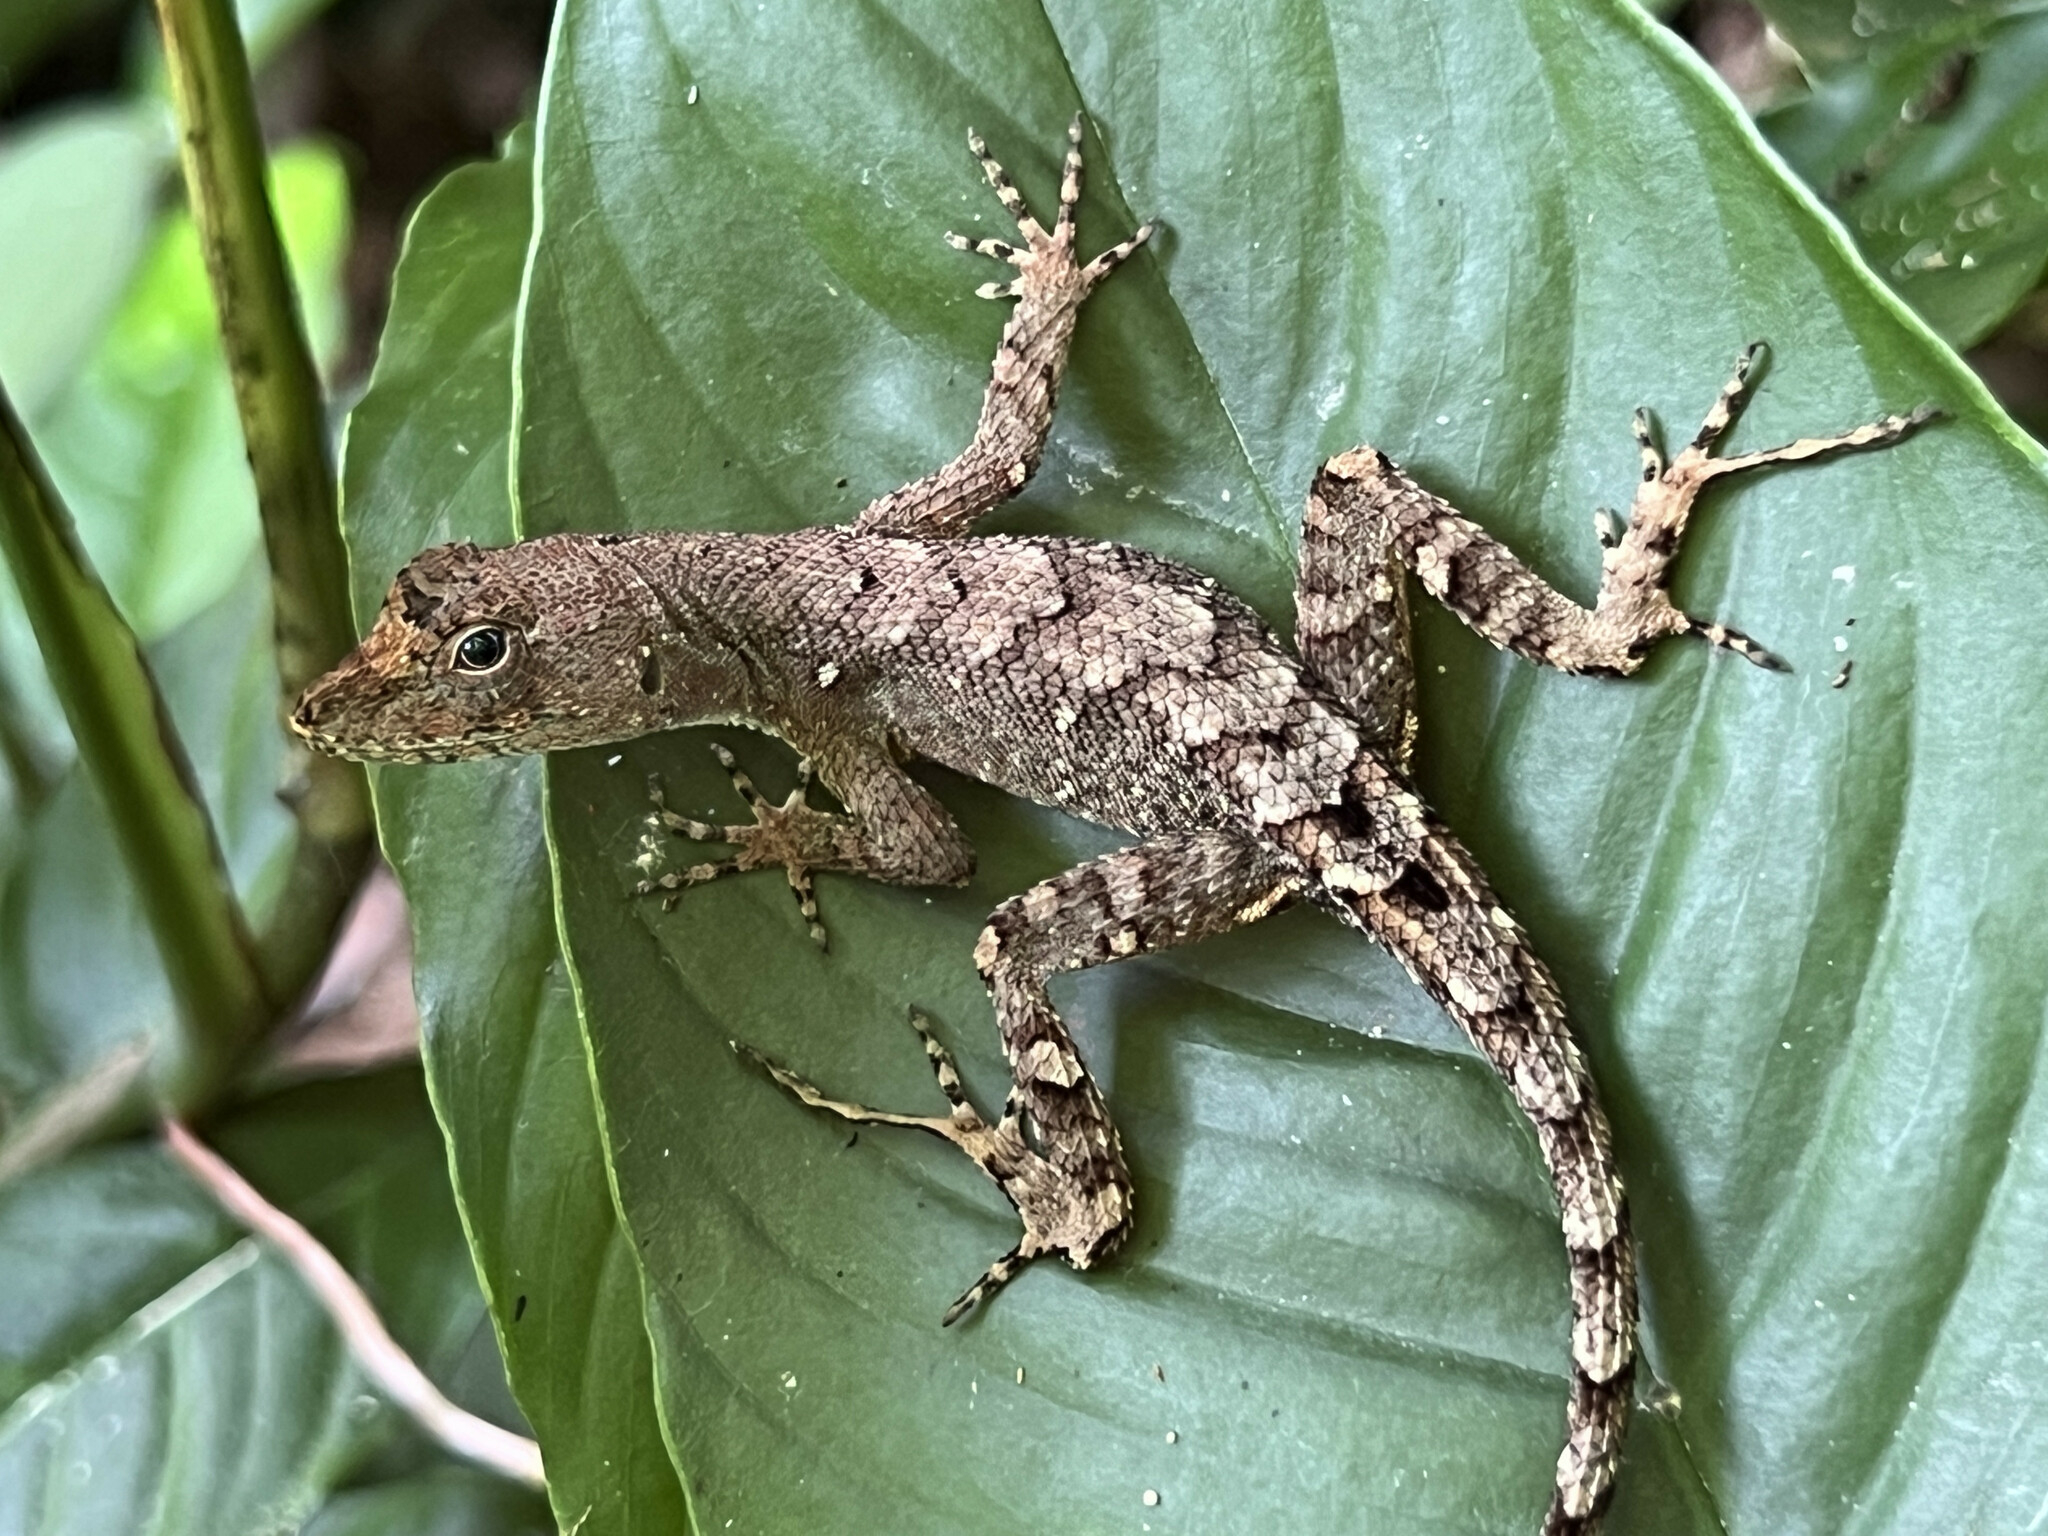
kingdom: Animalia
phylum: Chordata
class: Squamata
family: Dactyloidae
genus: Anolis
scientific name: Anolis wilsoni
